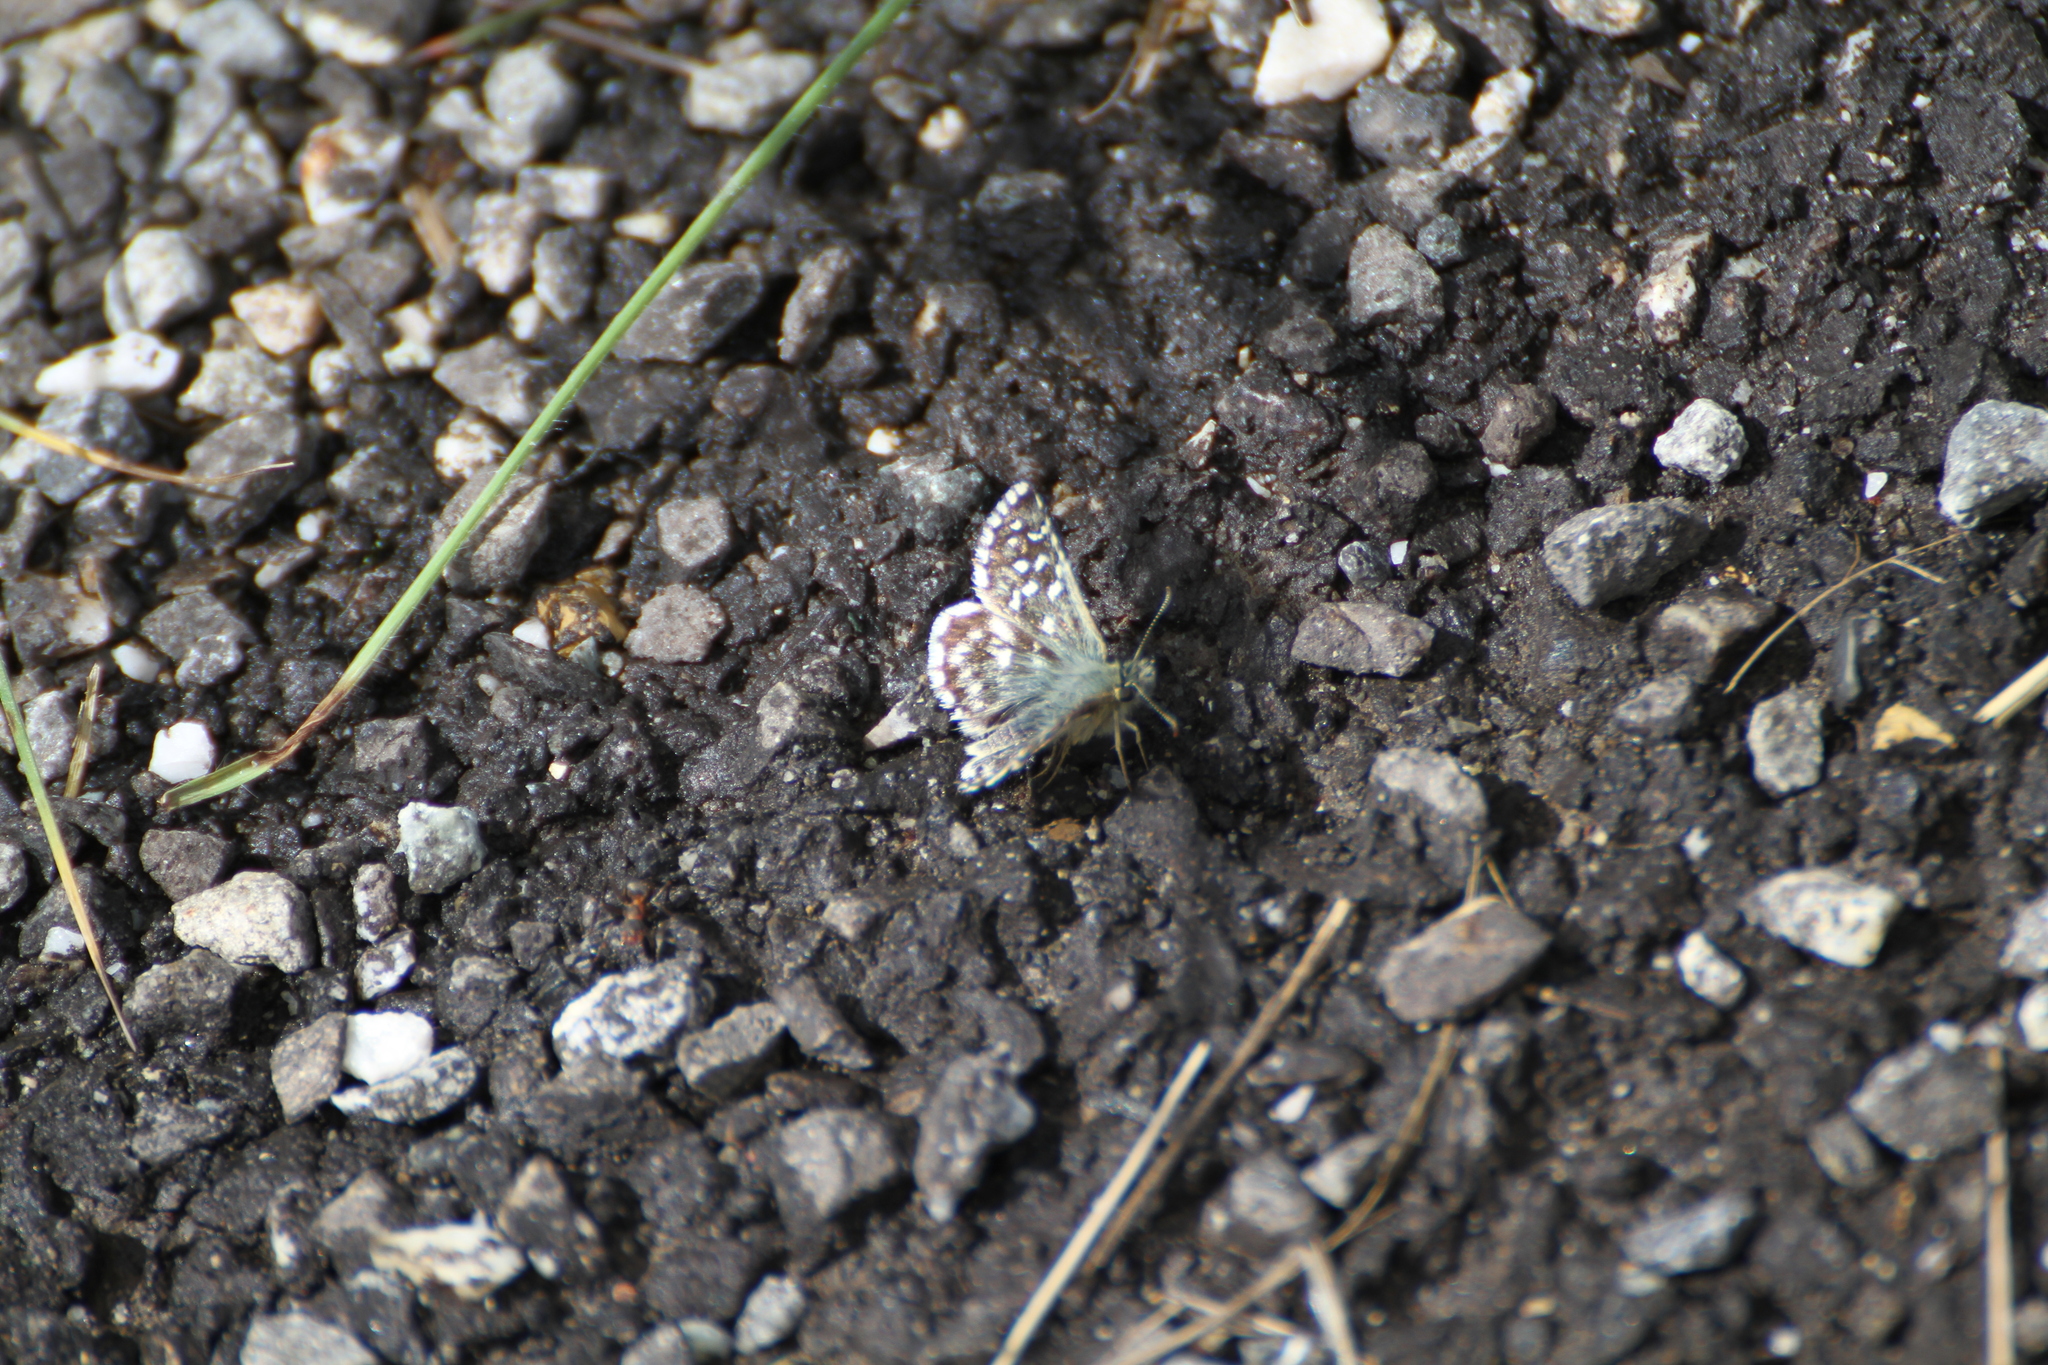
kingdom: Animalia
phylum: Arthropoda
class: Insecta
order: Lepidoptera
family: Hesperiidae
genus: Pyrgus
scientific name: Pyrgus malvoides
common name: Southern grizzled skipper
